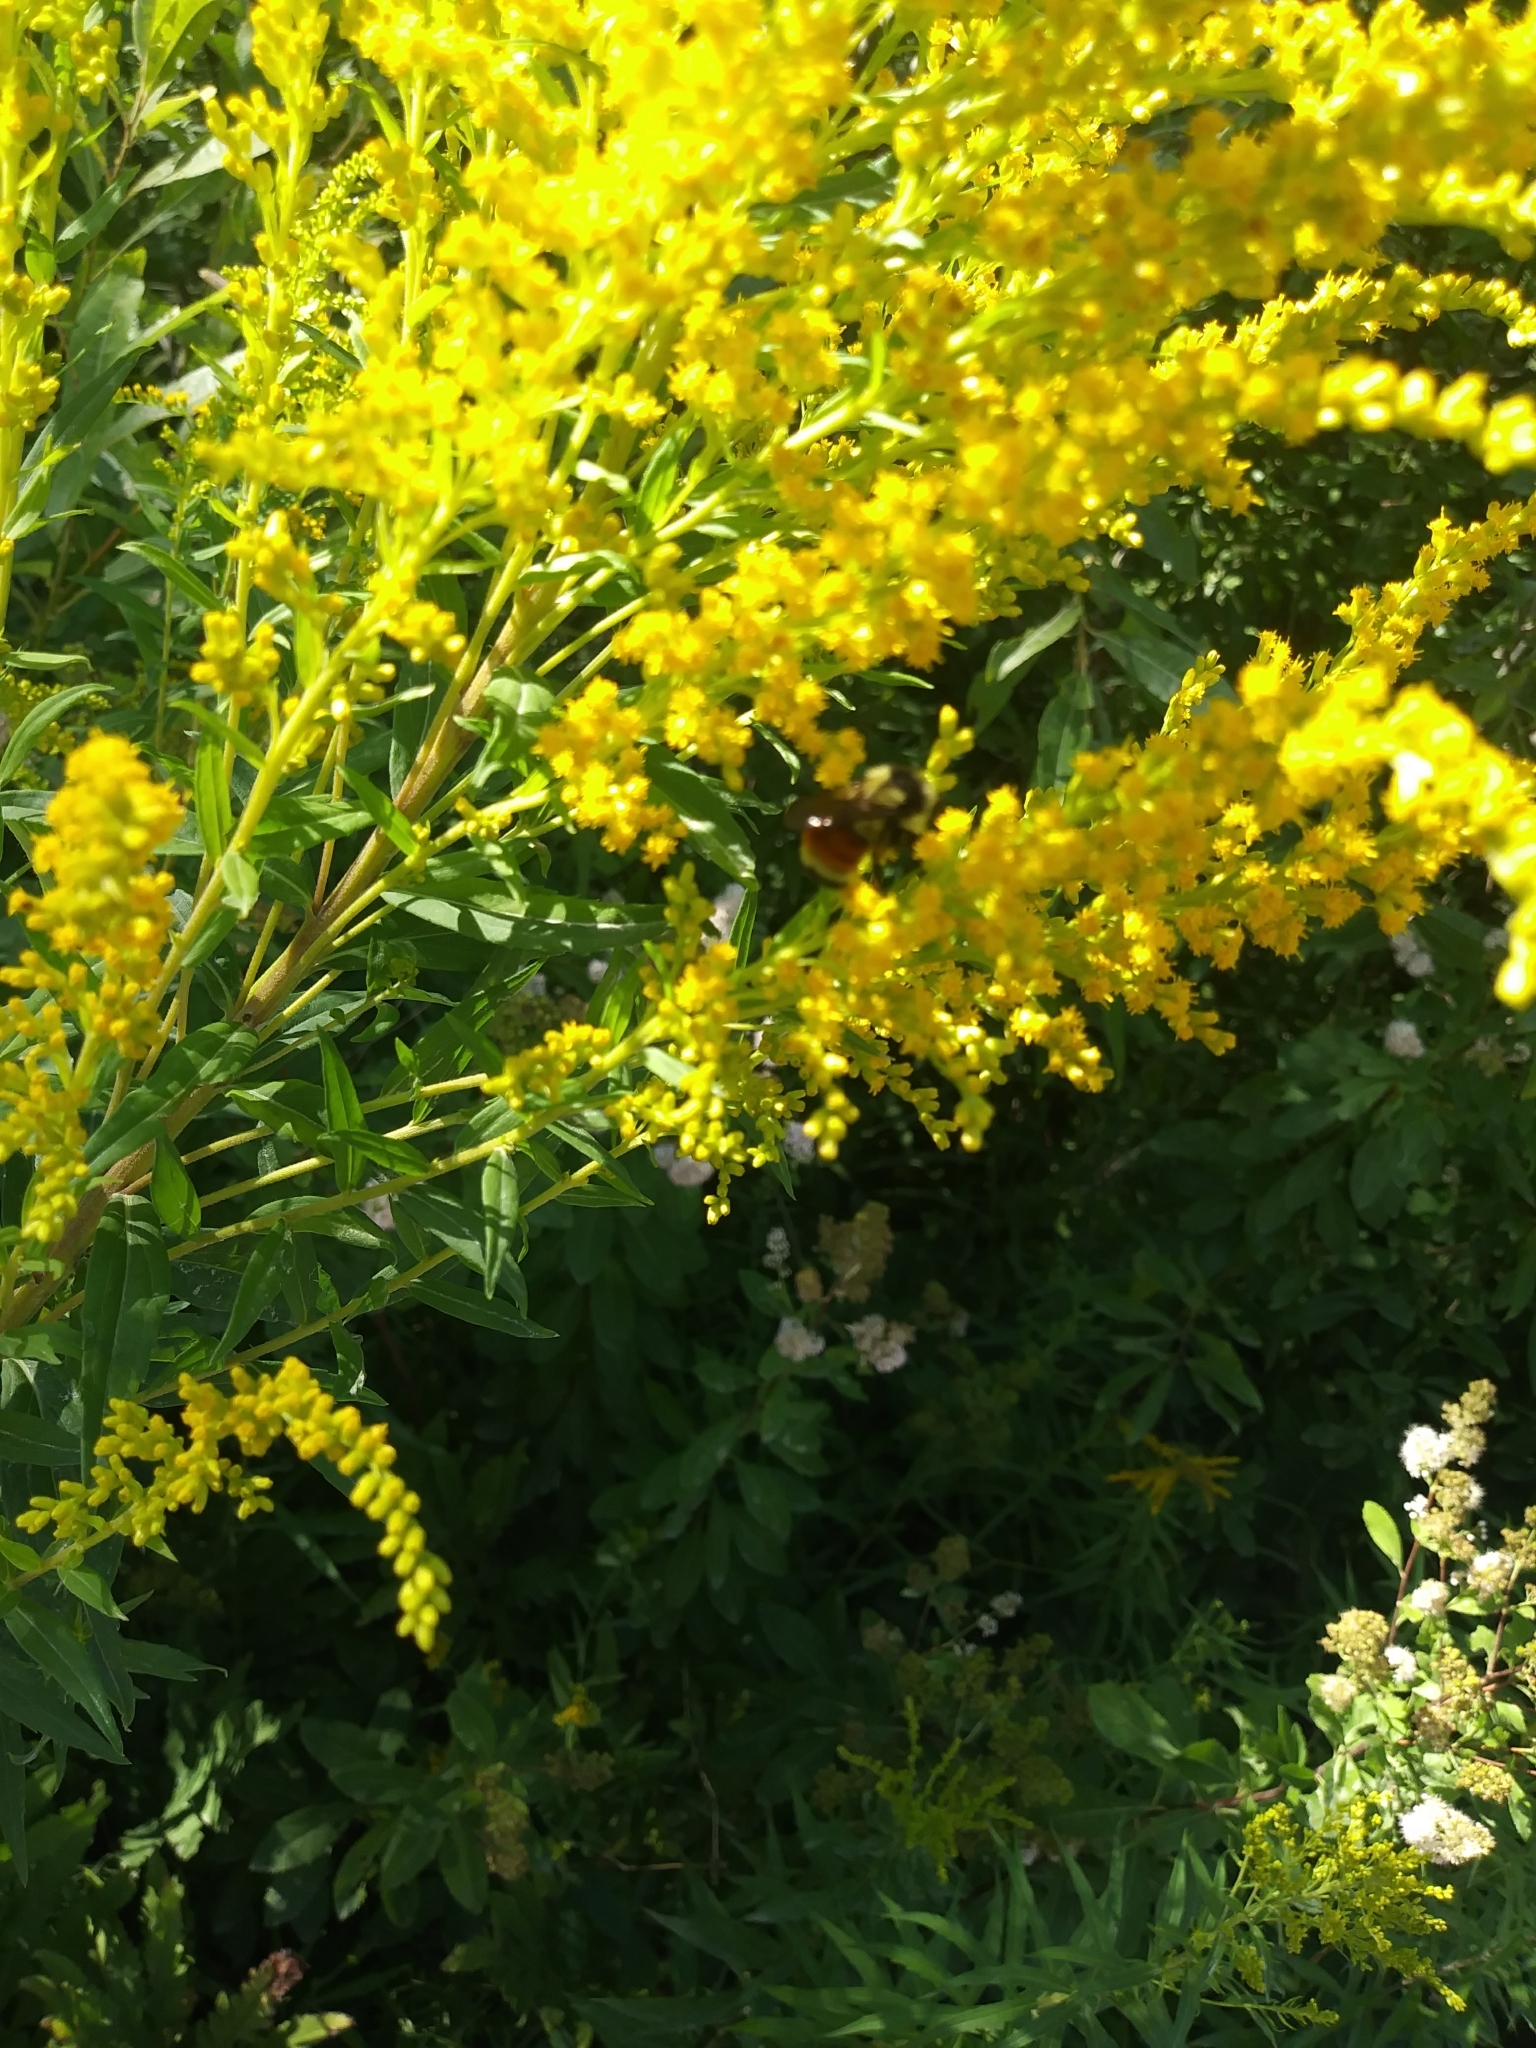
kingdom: Animalia
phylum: Arthropoda
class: Insecta
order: Hymenoptera
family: Apidae
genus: Bombus
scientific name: Bombus ternarius
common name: Tri-colored bumble bee
